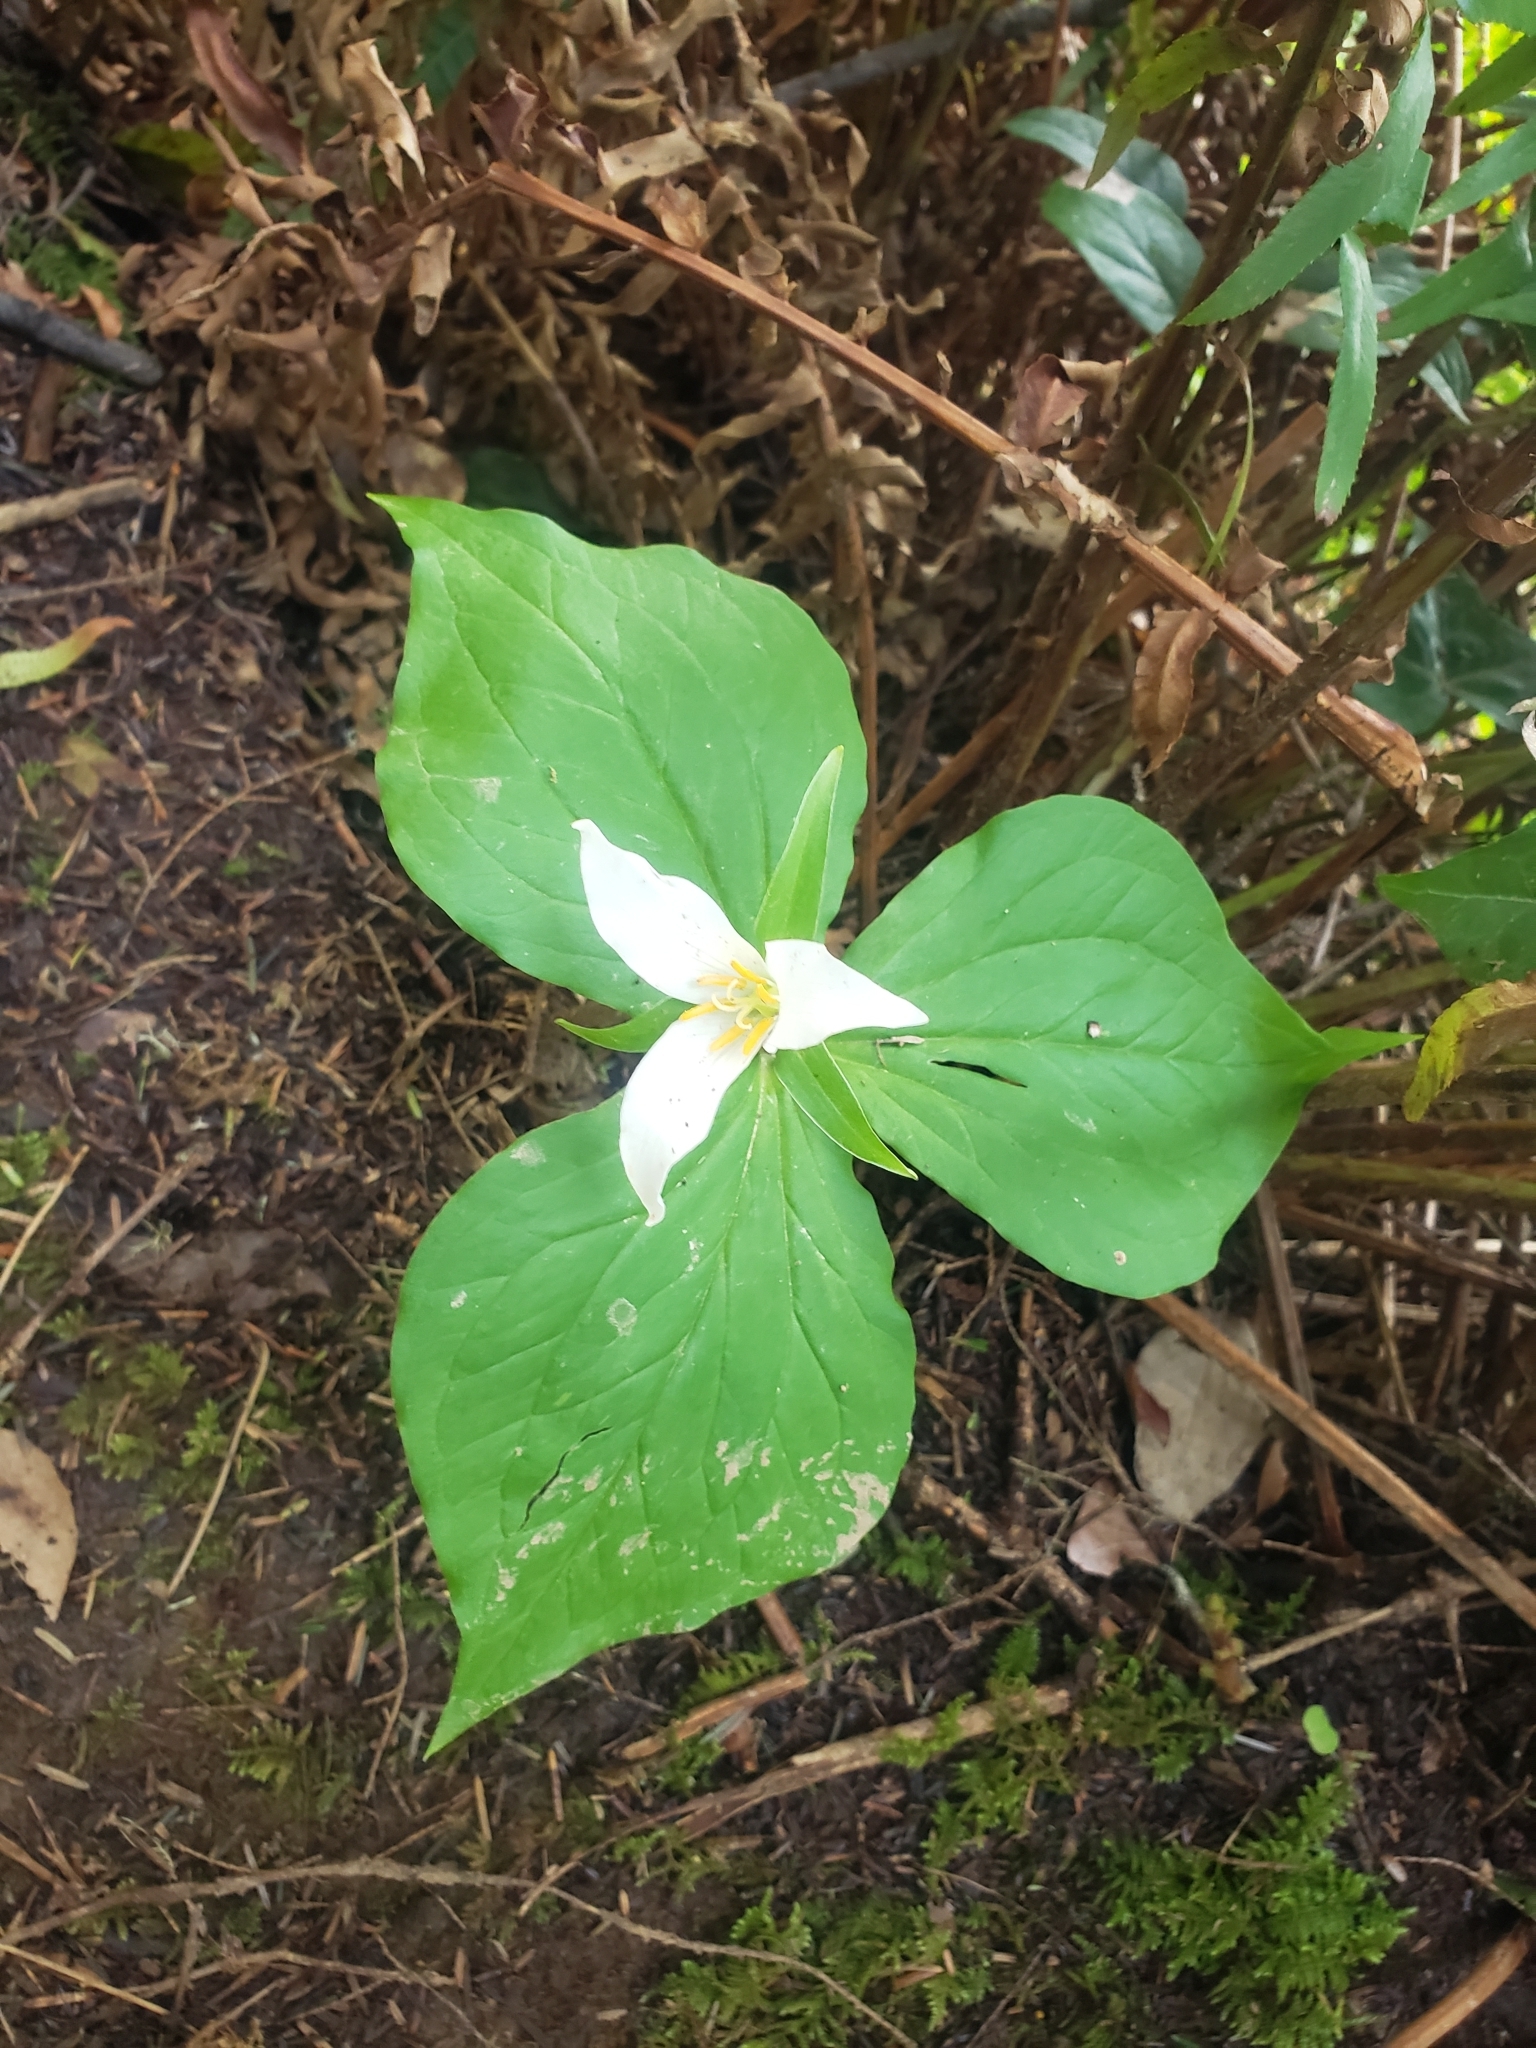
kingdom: Plantae
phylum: Tracheophyta
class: Liliopsida
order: Liliales
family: Melanthiaceae
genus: Trillium
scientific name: Trillium ovatum
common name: Pacific trillium
